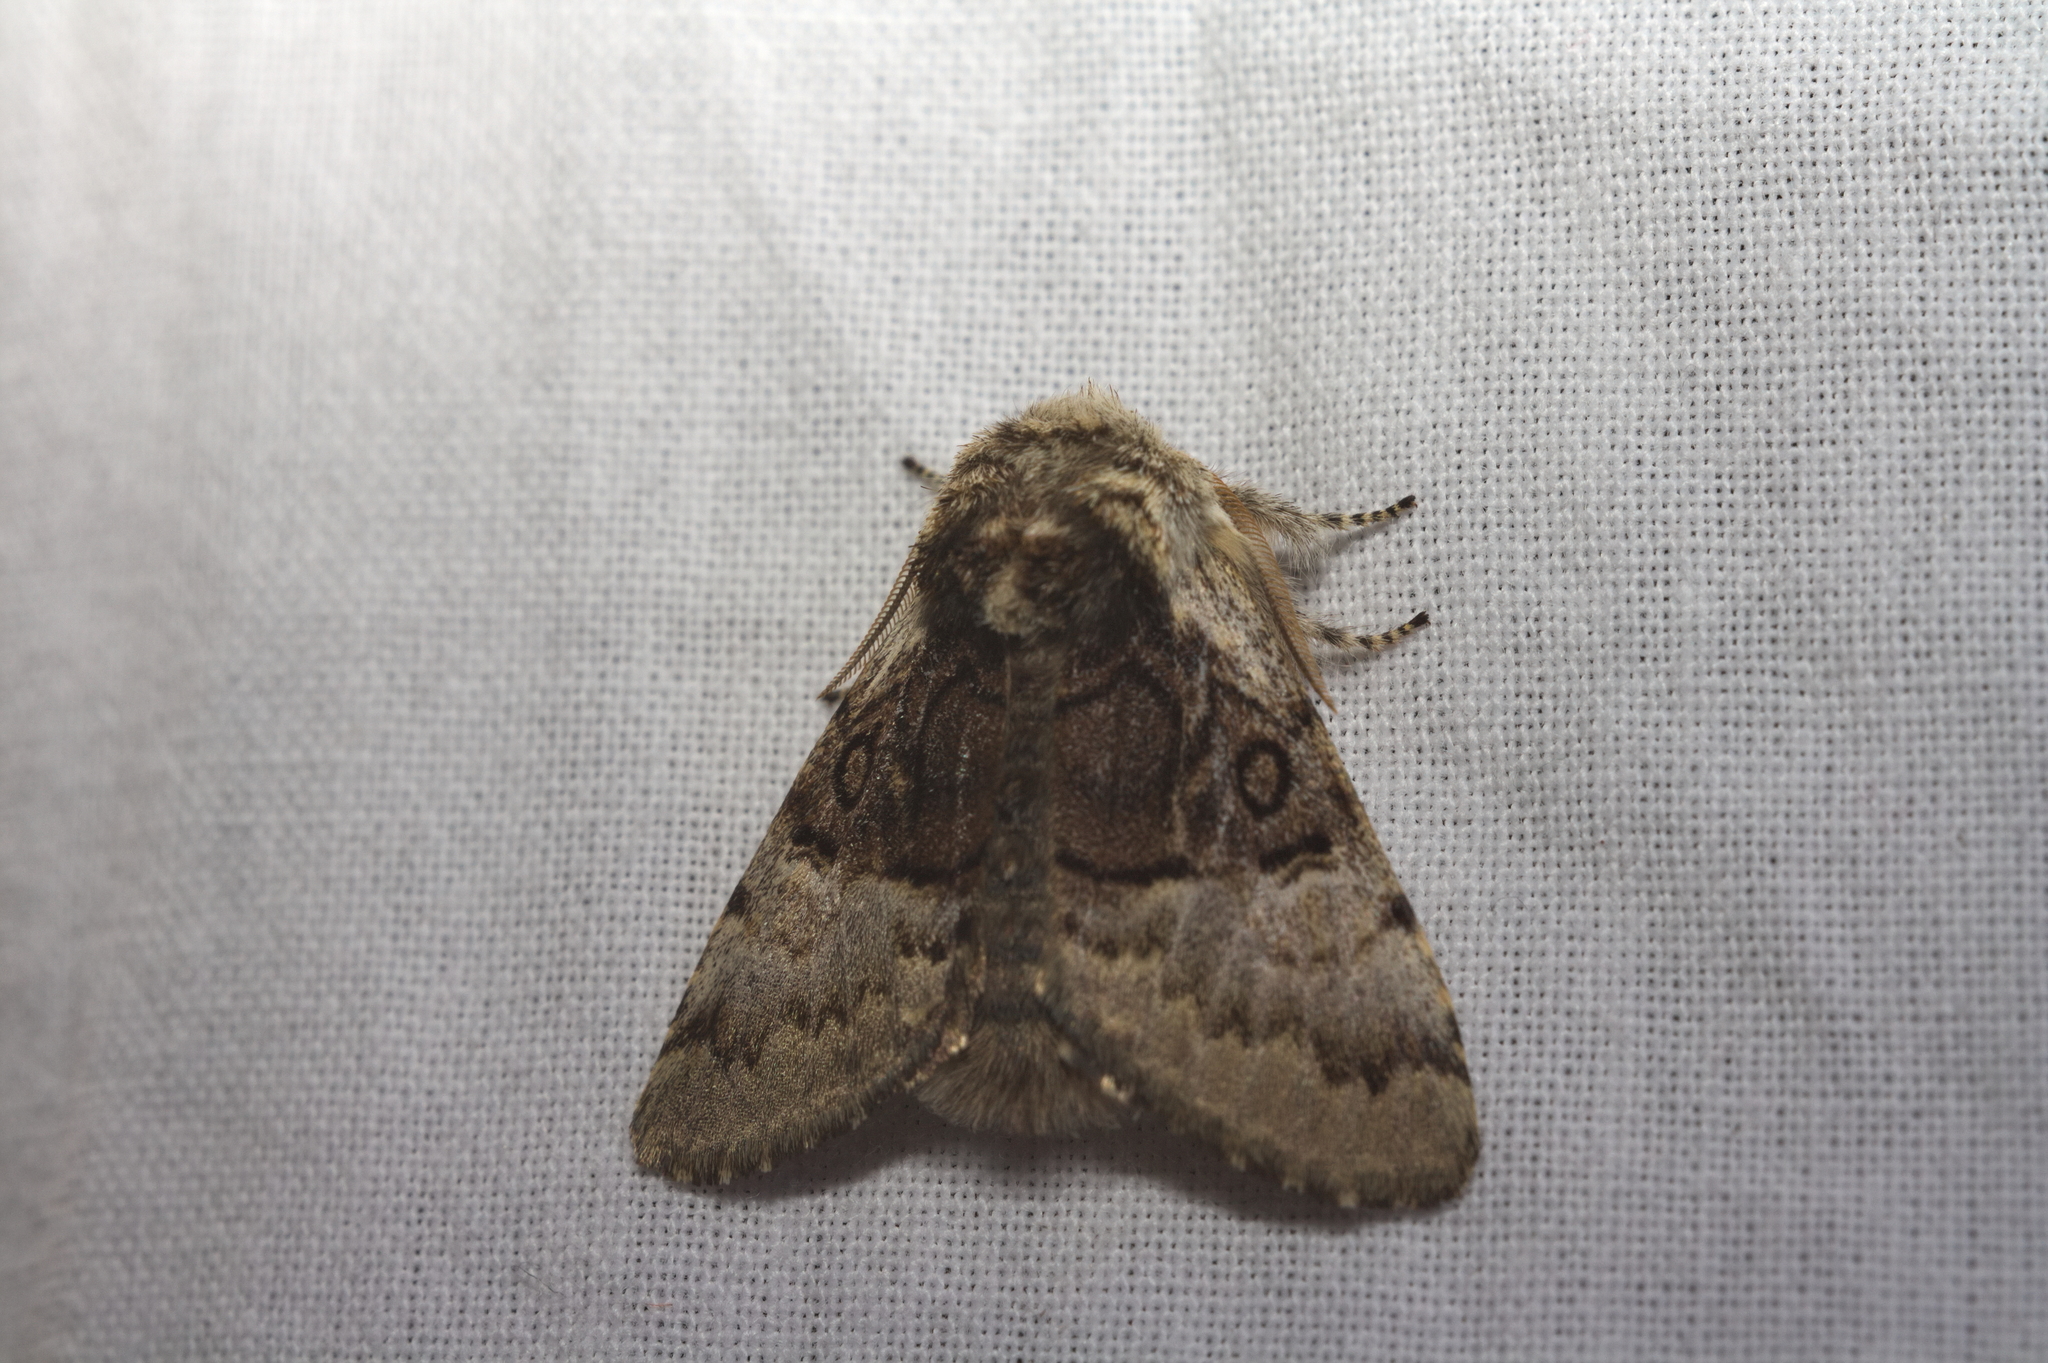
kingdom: Animalia
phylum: Arthropoda
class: Insecta
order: Lepidoptera
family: Noctuidae
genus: Colocasia
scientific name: Colocasia coryli
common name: Nut-tree tussock
